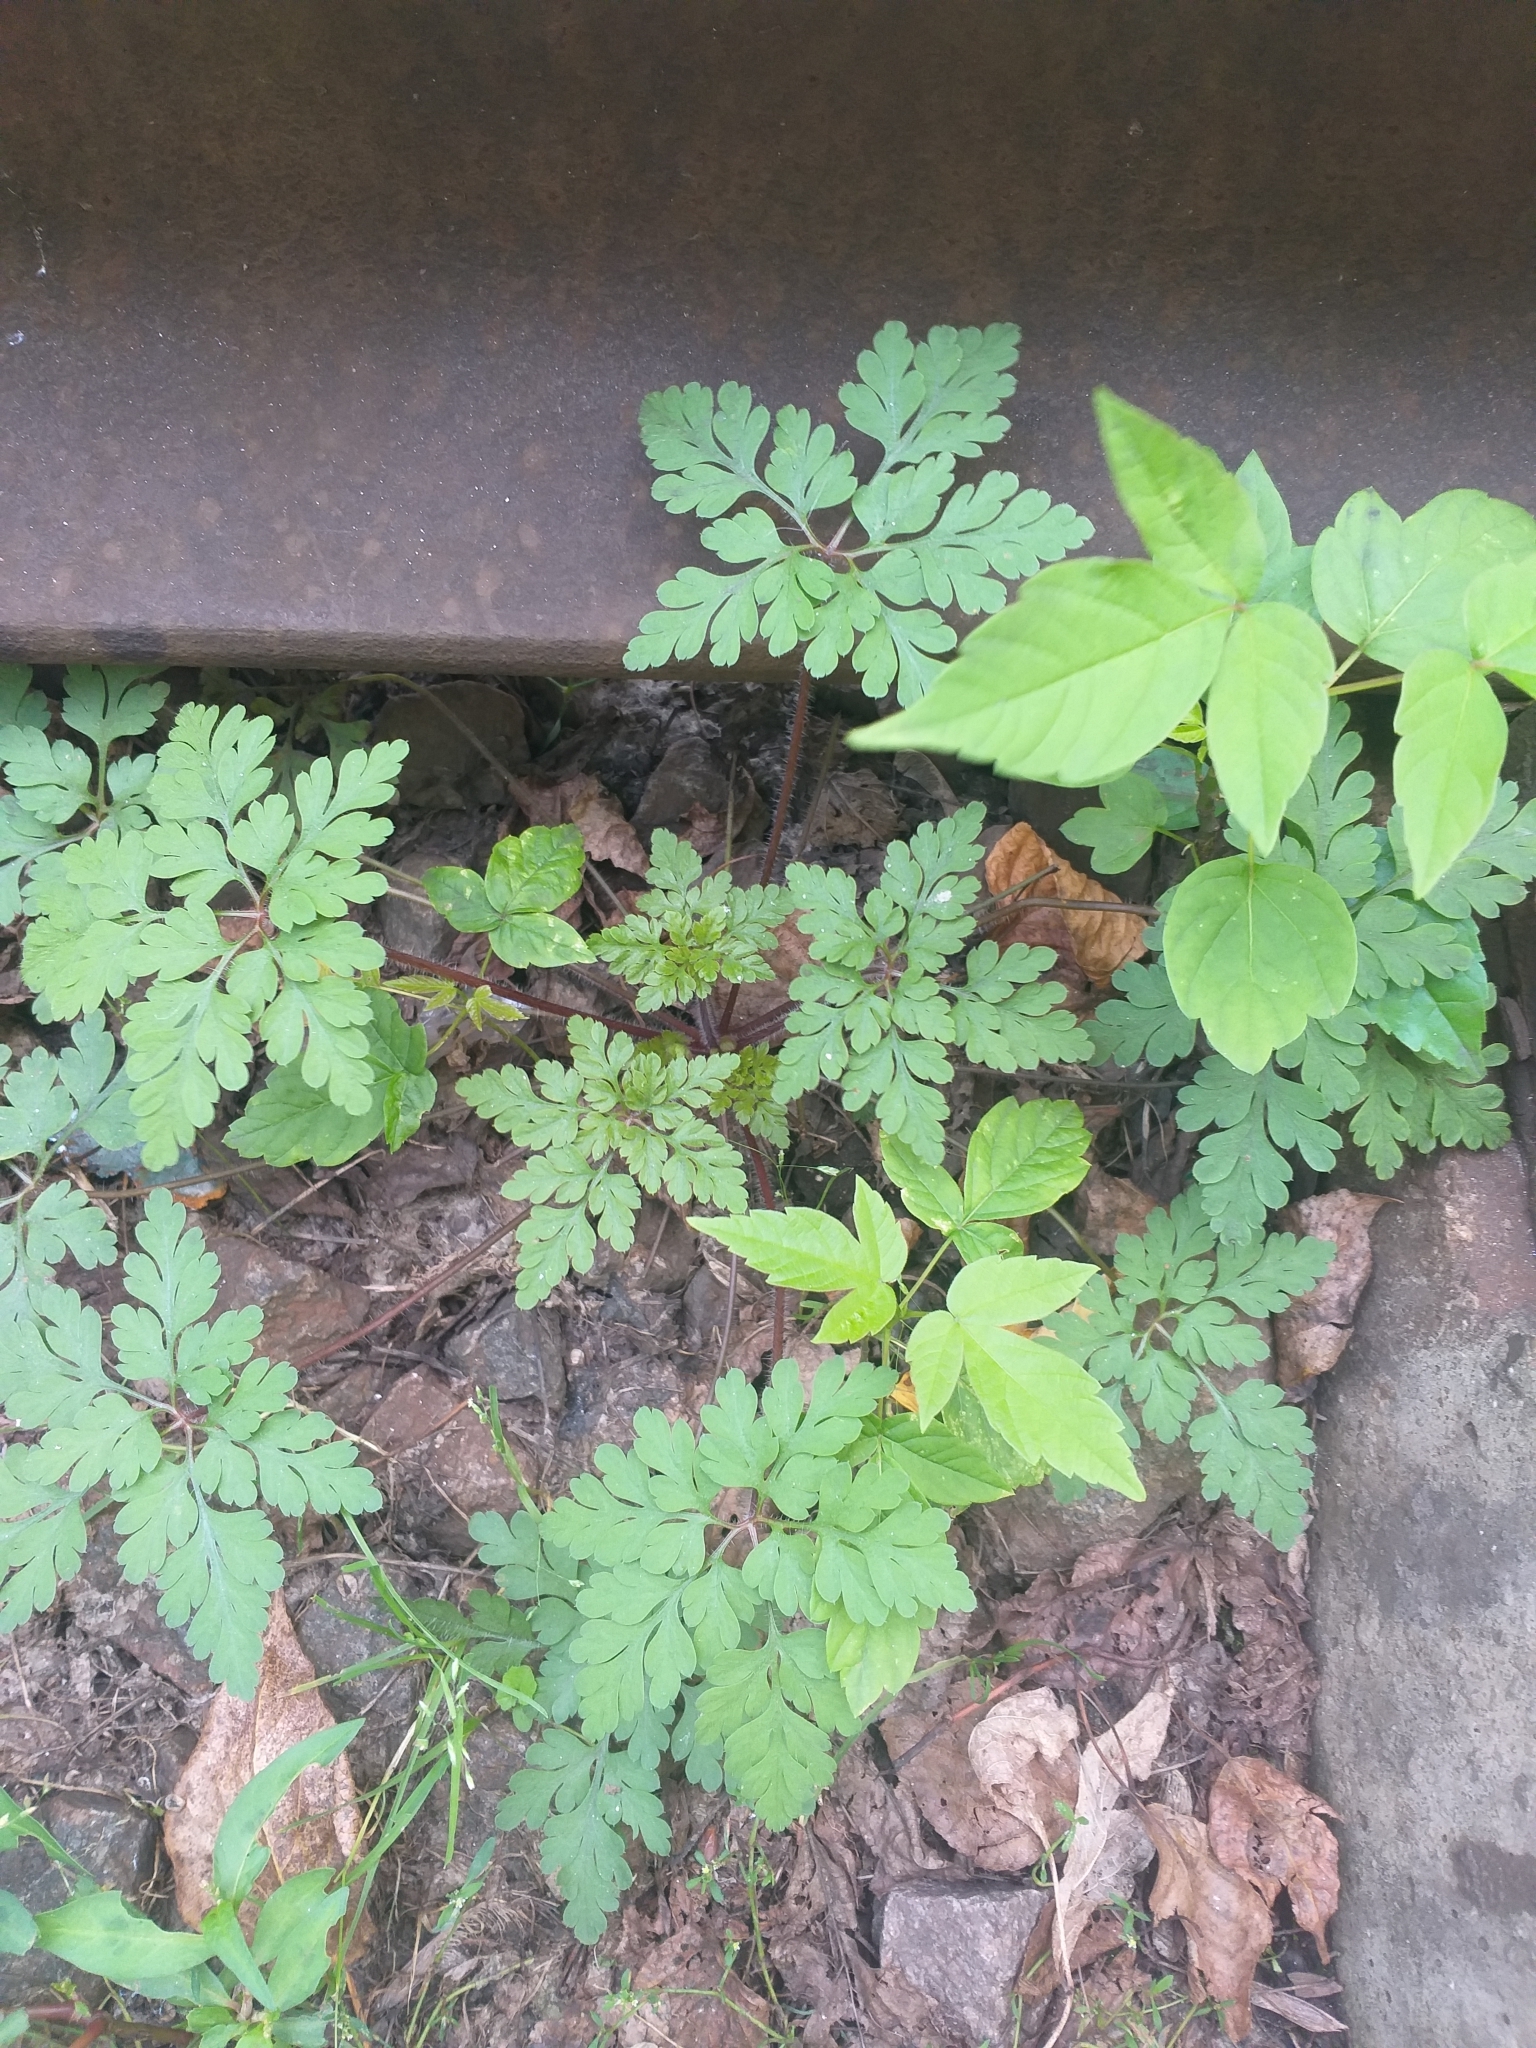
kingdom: Plantae
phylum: Tracheophyta
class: Magnoliopsida
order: Geraniales
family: Geraniaceae
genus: Geranium
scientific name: Geranium robertianum
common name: Herb-robert
